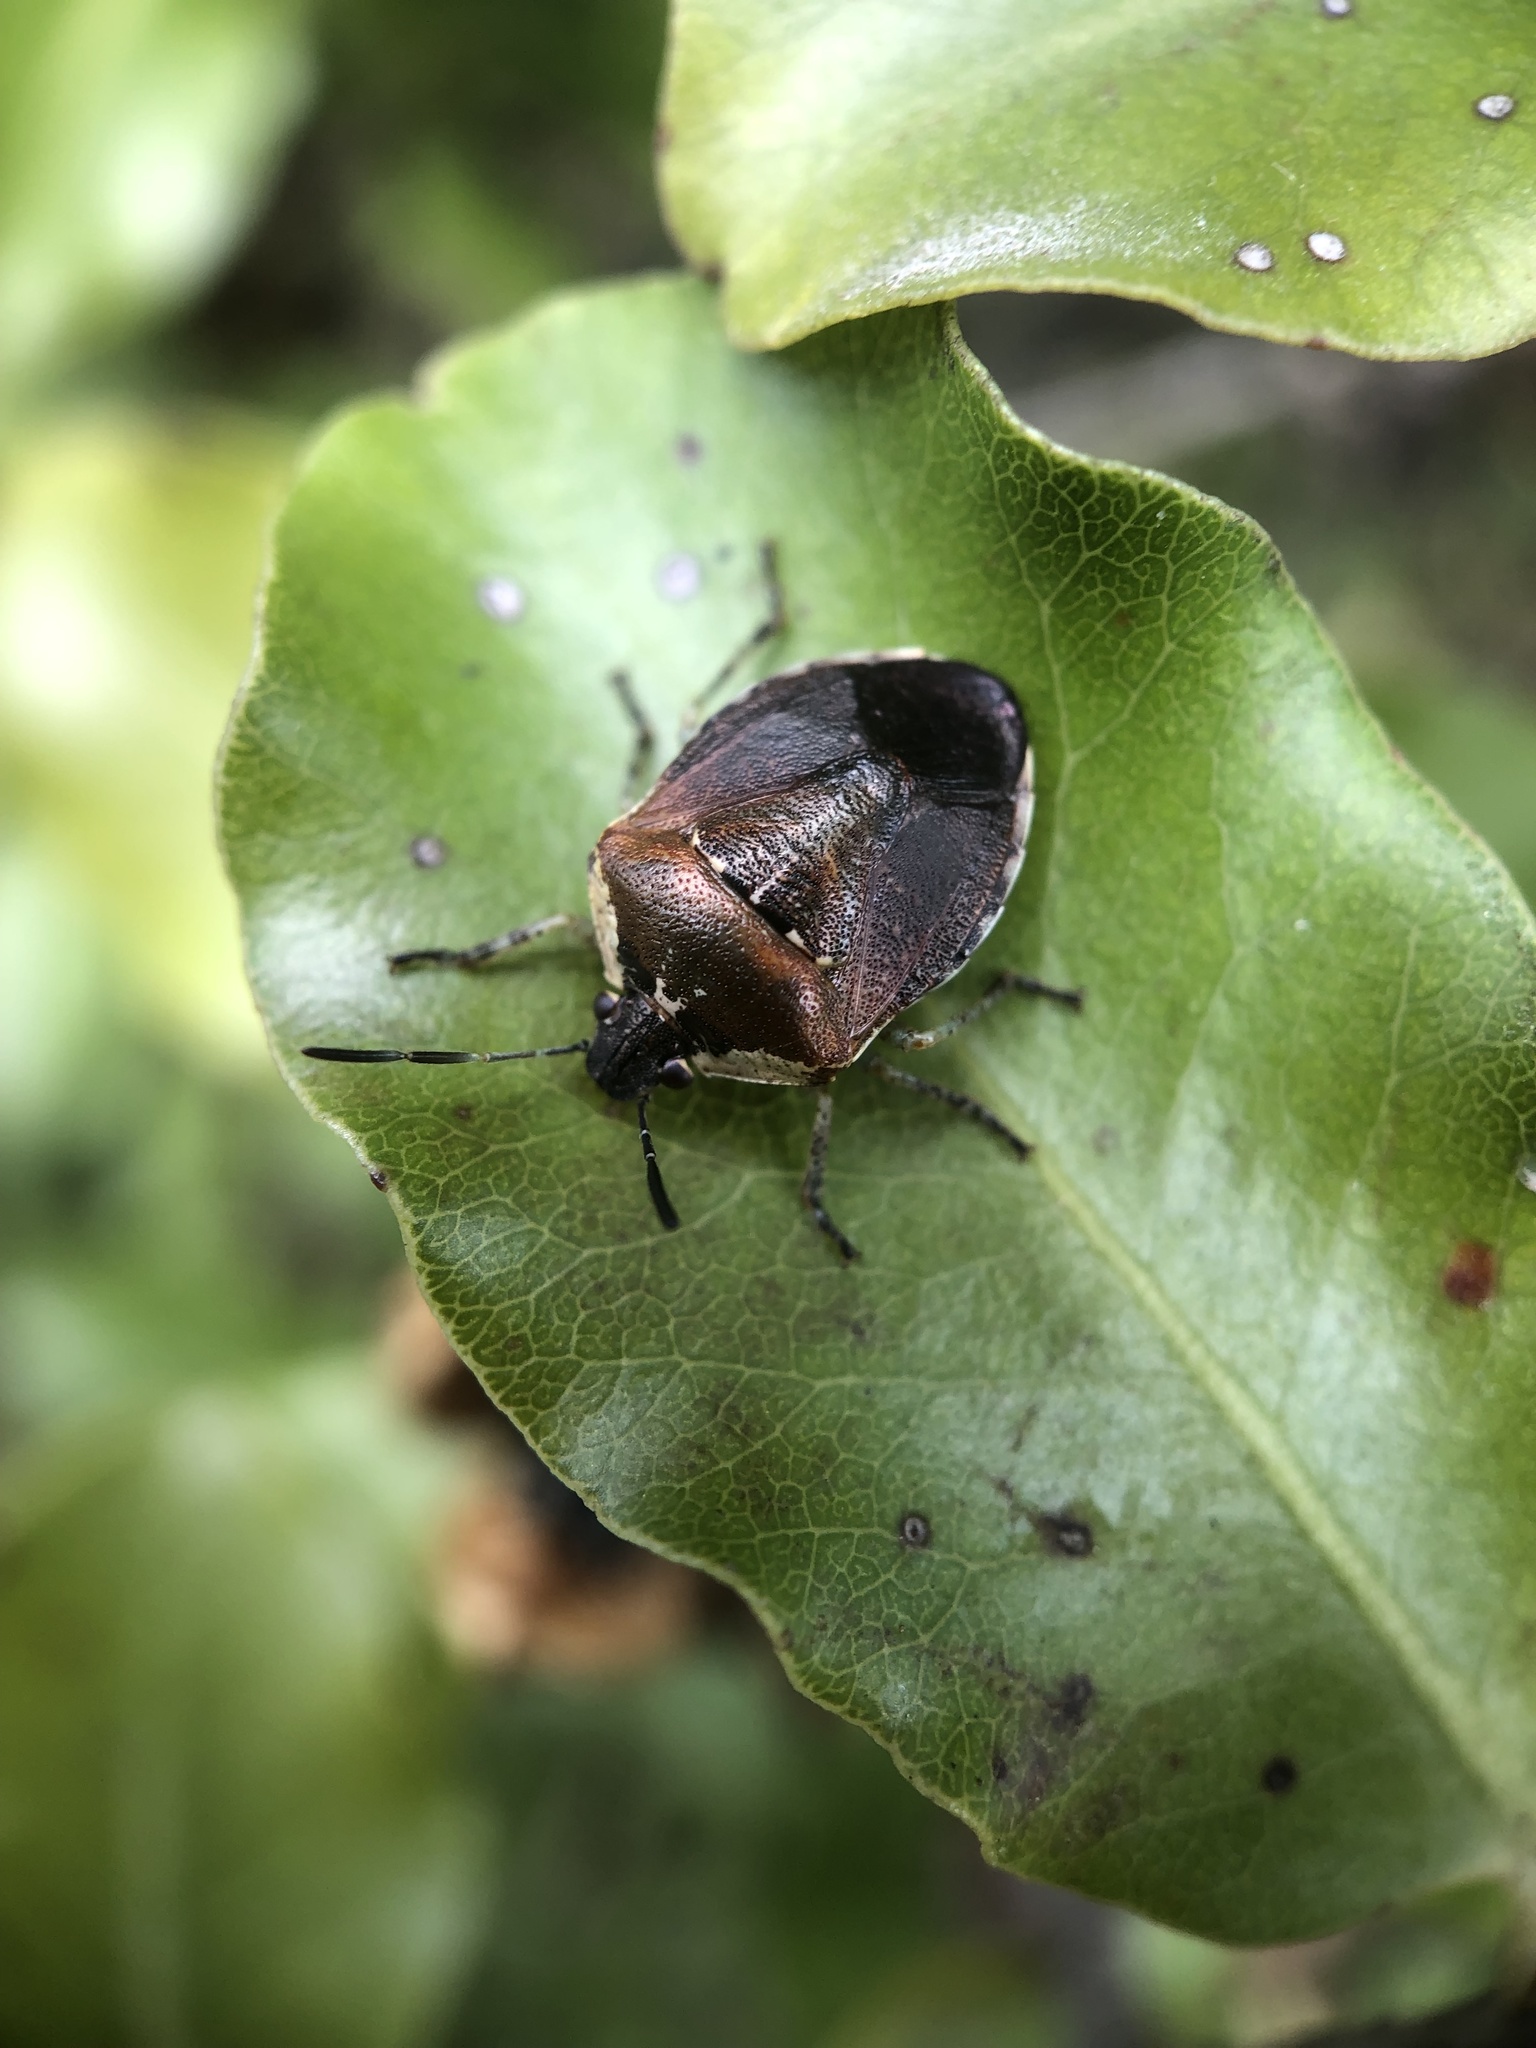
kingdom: Animalia
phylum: Arthropoda
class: Insecta
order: Hemiptera
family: Pentatomidae
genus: Monteithiella
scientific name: Monteithiella
